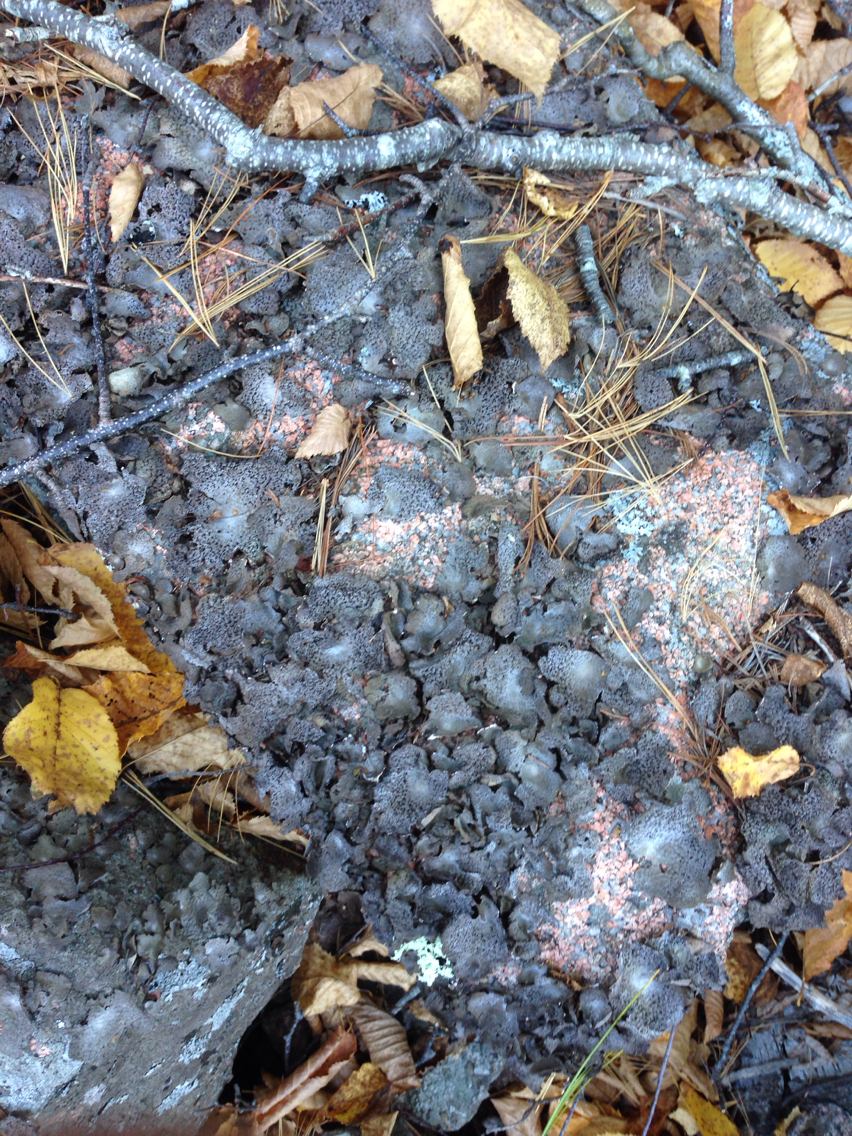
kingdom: Fungi
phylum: Ascomycota
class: Lecanoromycetes
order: Umbilicariales
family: Umbilicariaceae
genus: Lasallia
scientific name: Lasallia papulosa
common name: Common toadskin lichen
